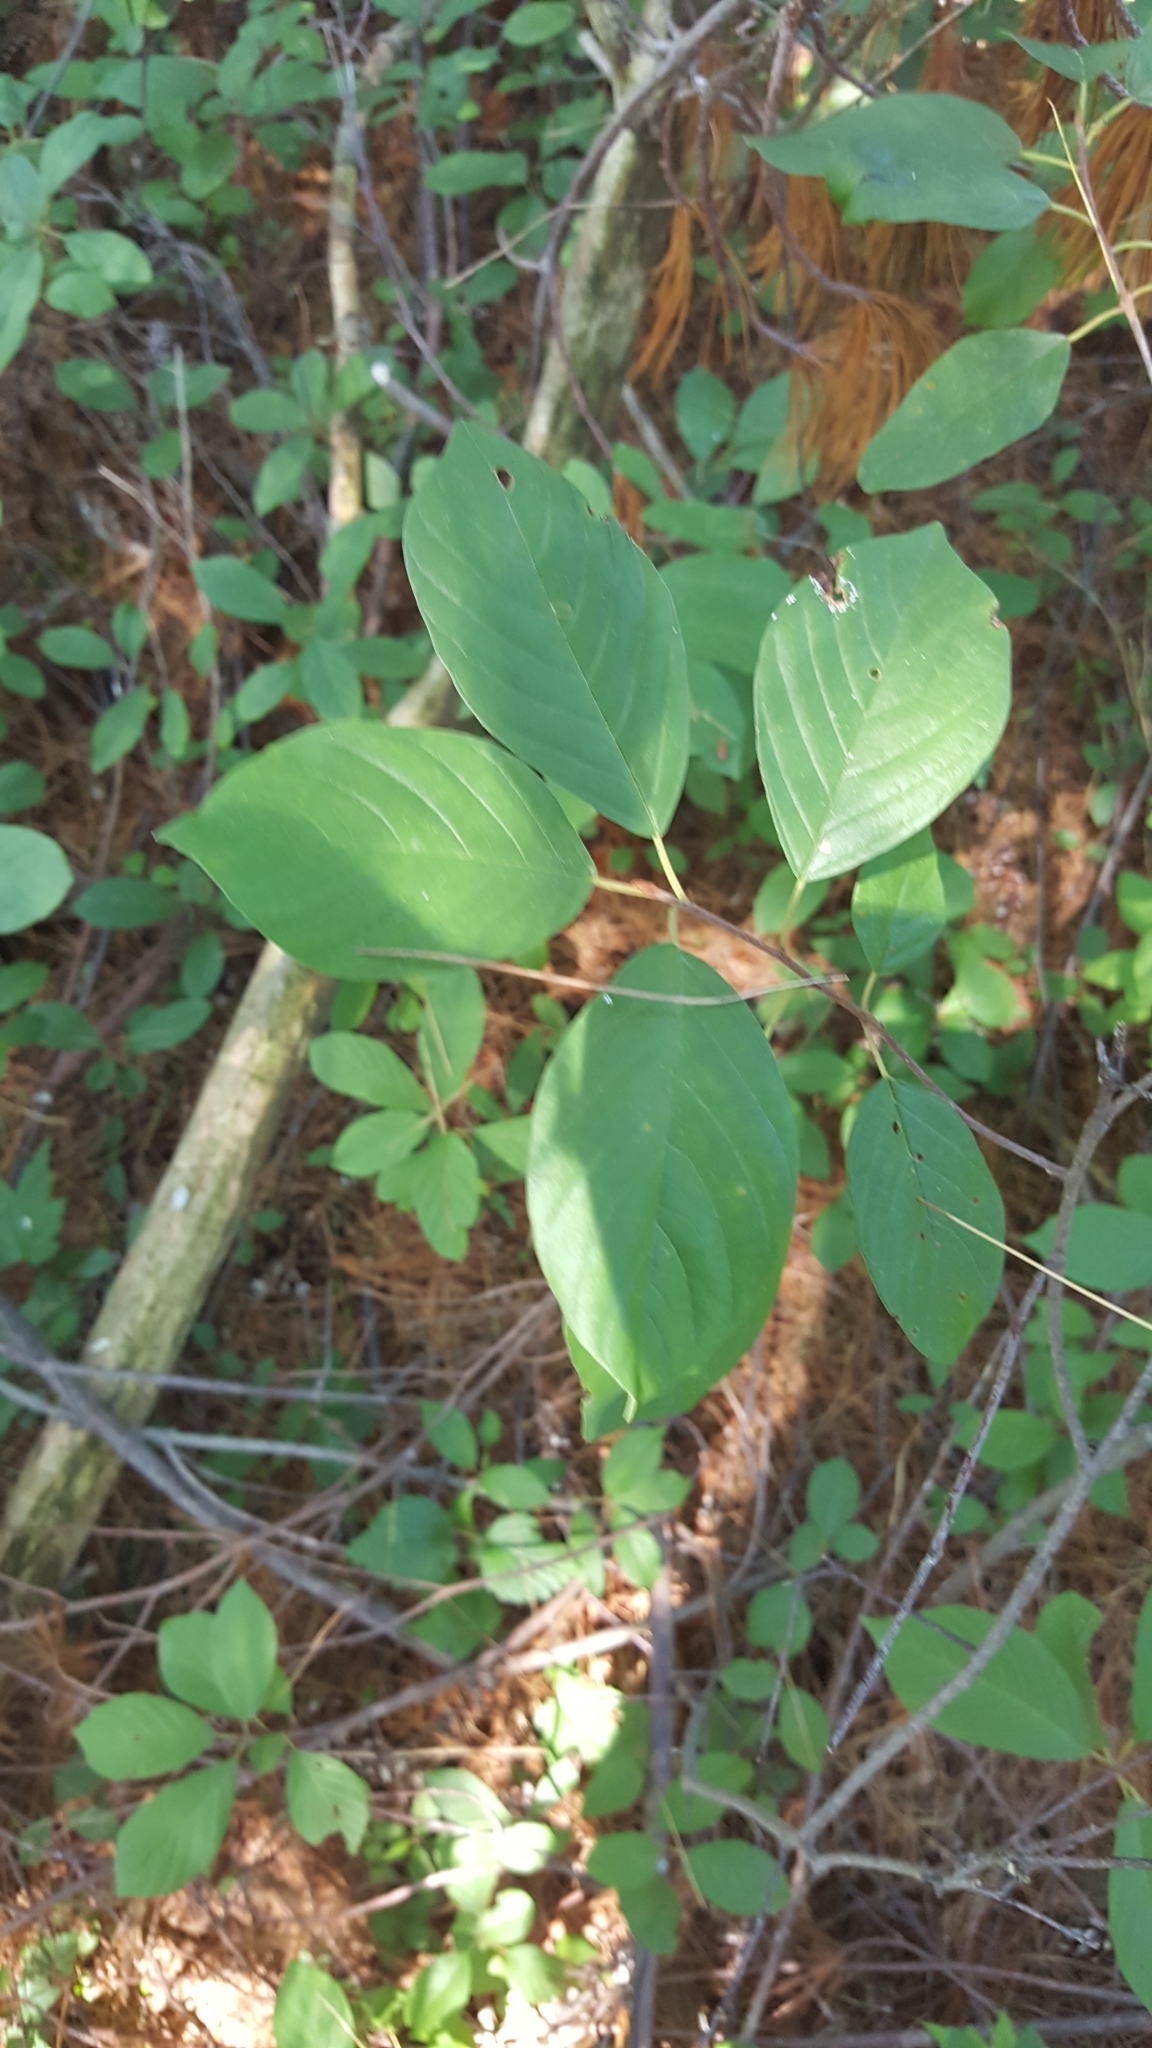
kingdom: Plantae
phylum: Tracheophyta
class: Magnoliopsida
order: Rosales
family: Rhamnaceae
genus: Frangula
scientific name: Frangula alnus
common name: Alder buckthorn
